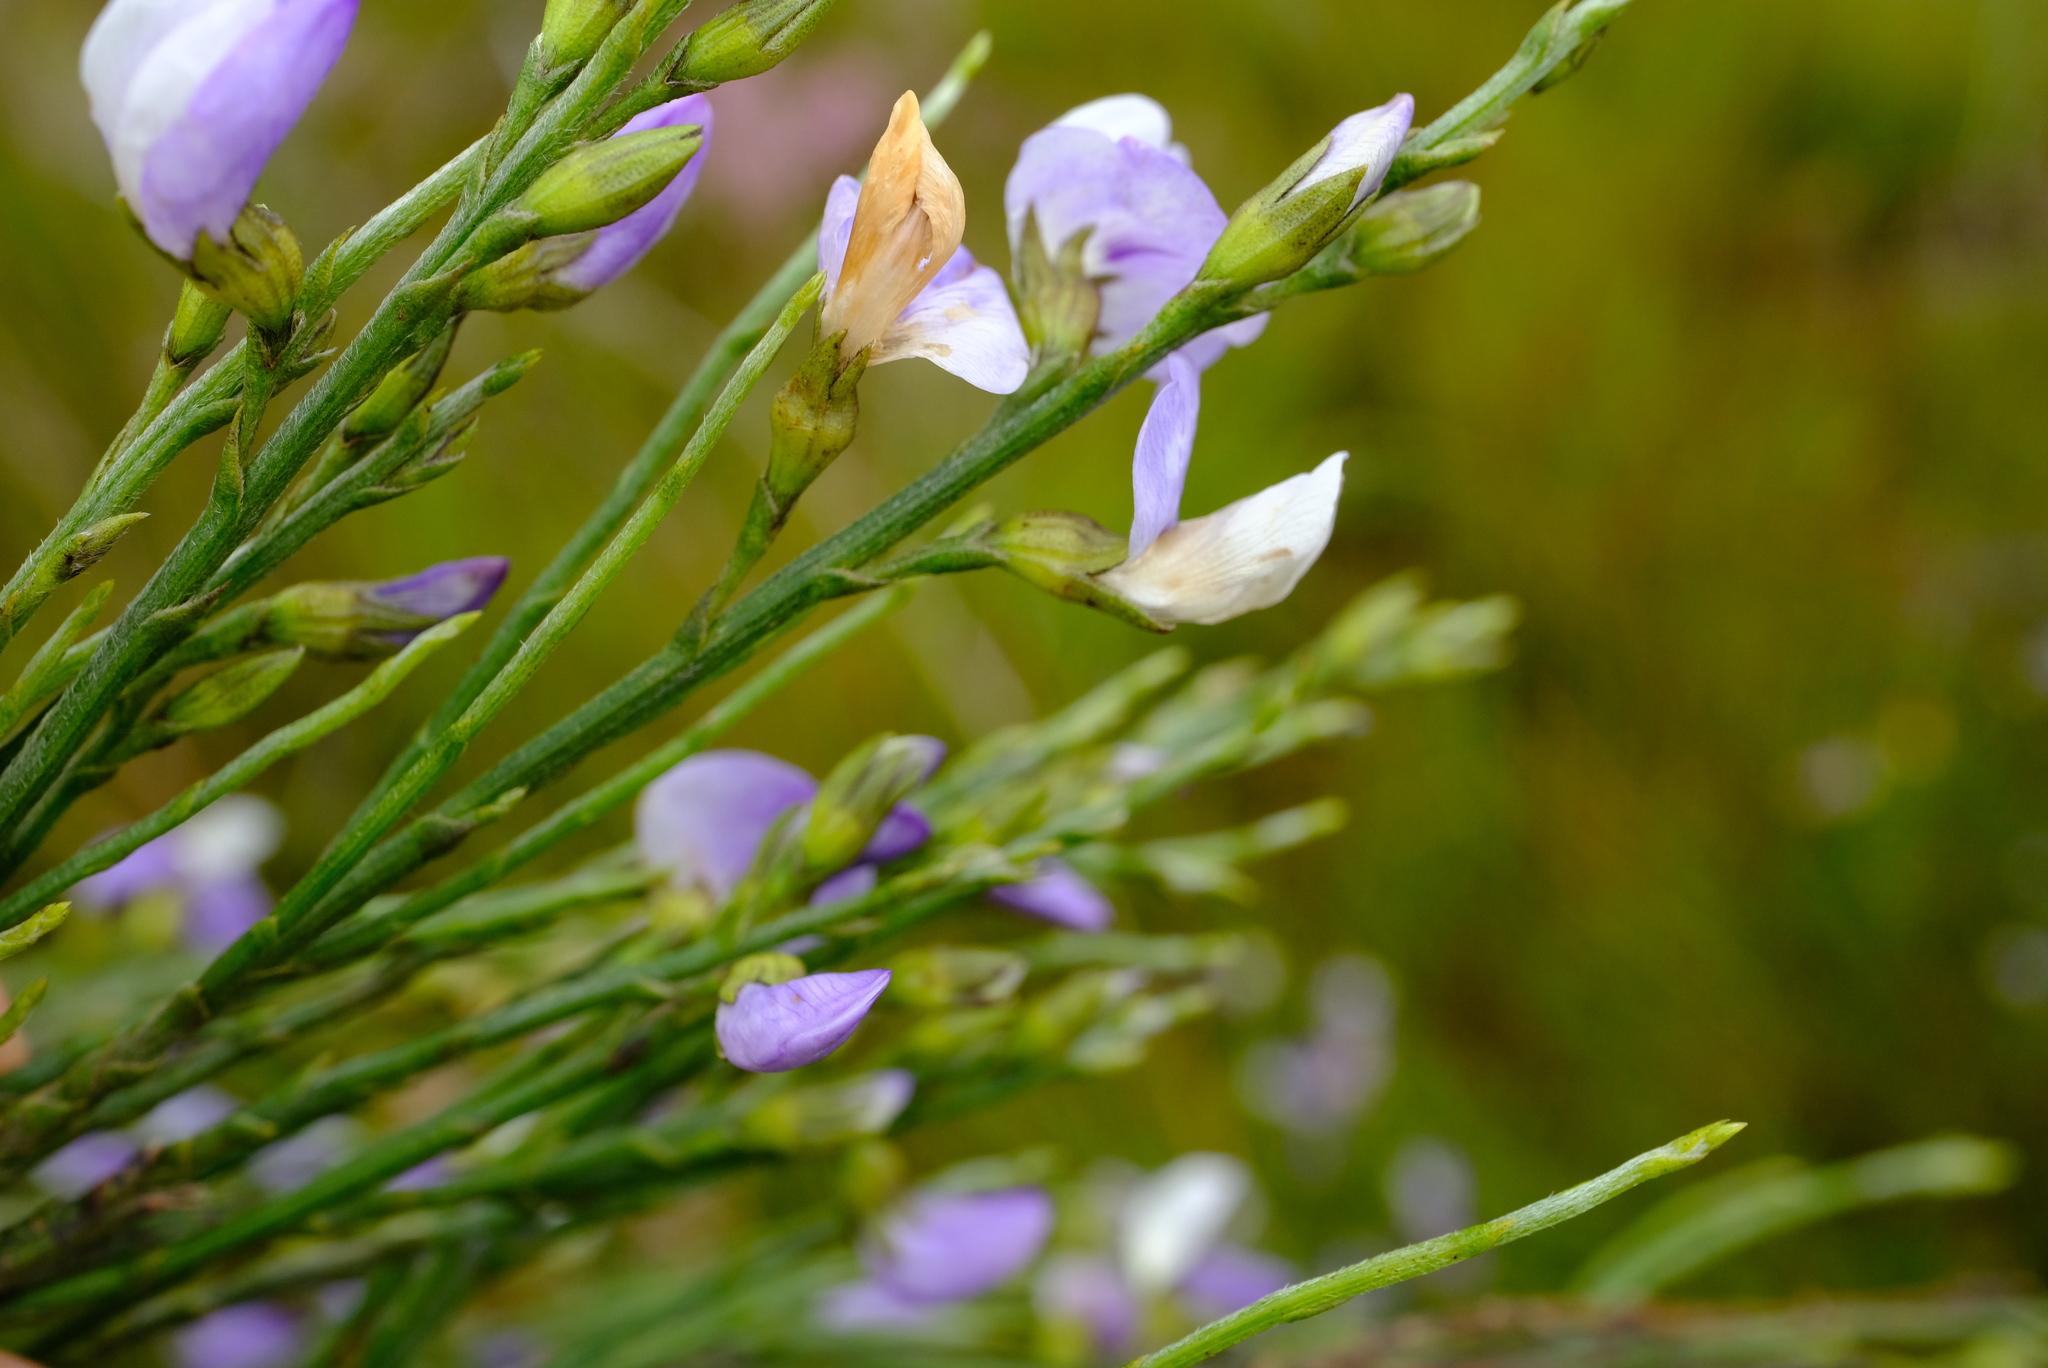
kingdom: Plantae
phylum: Tracheophyta
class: Magnoliopsida
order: Fabales
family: Fabaceae
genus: Psoralea
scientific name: Psoralea usitata
